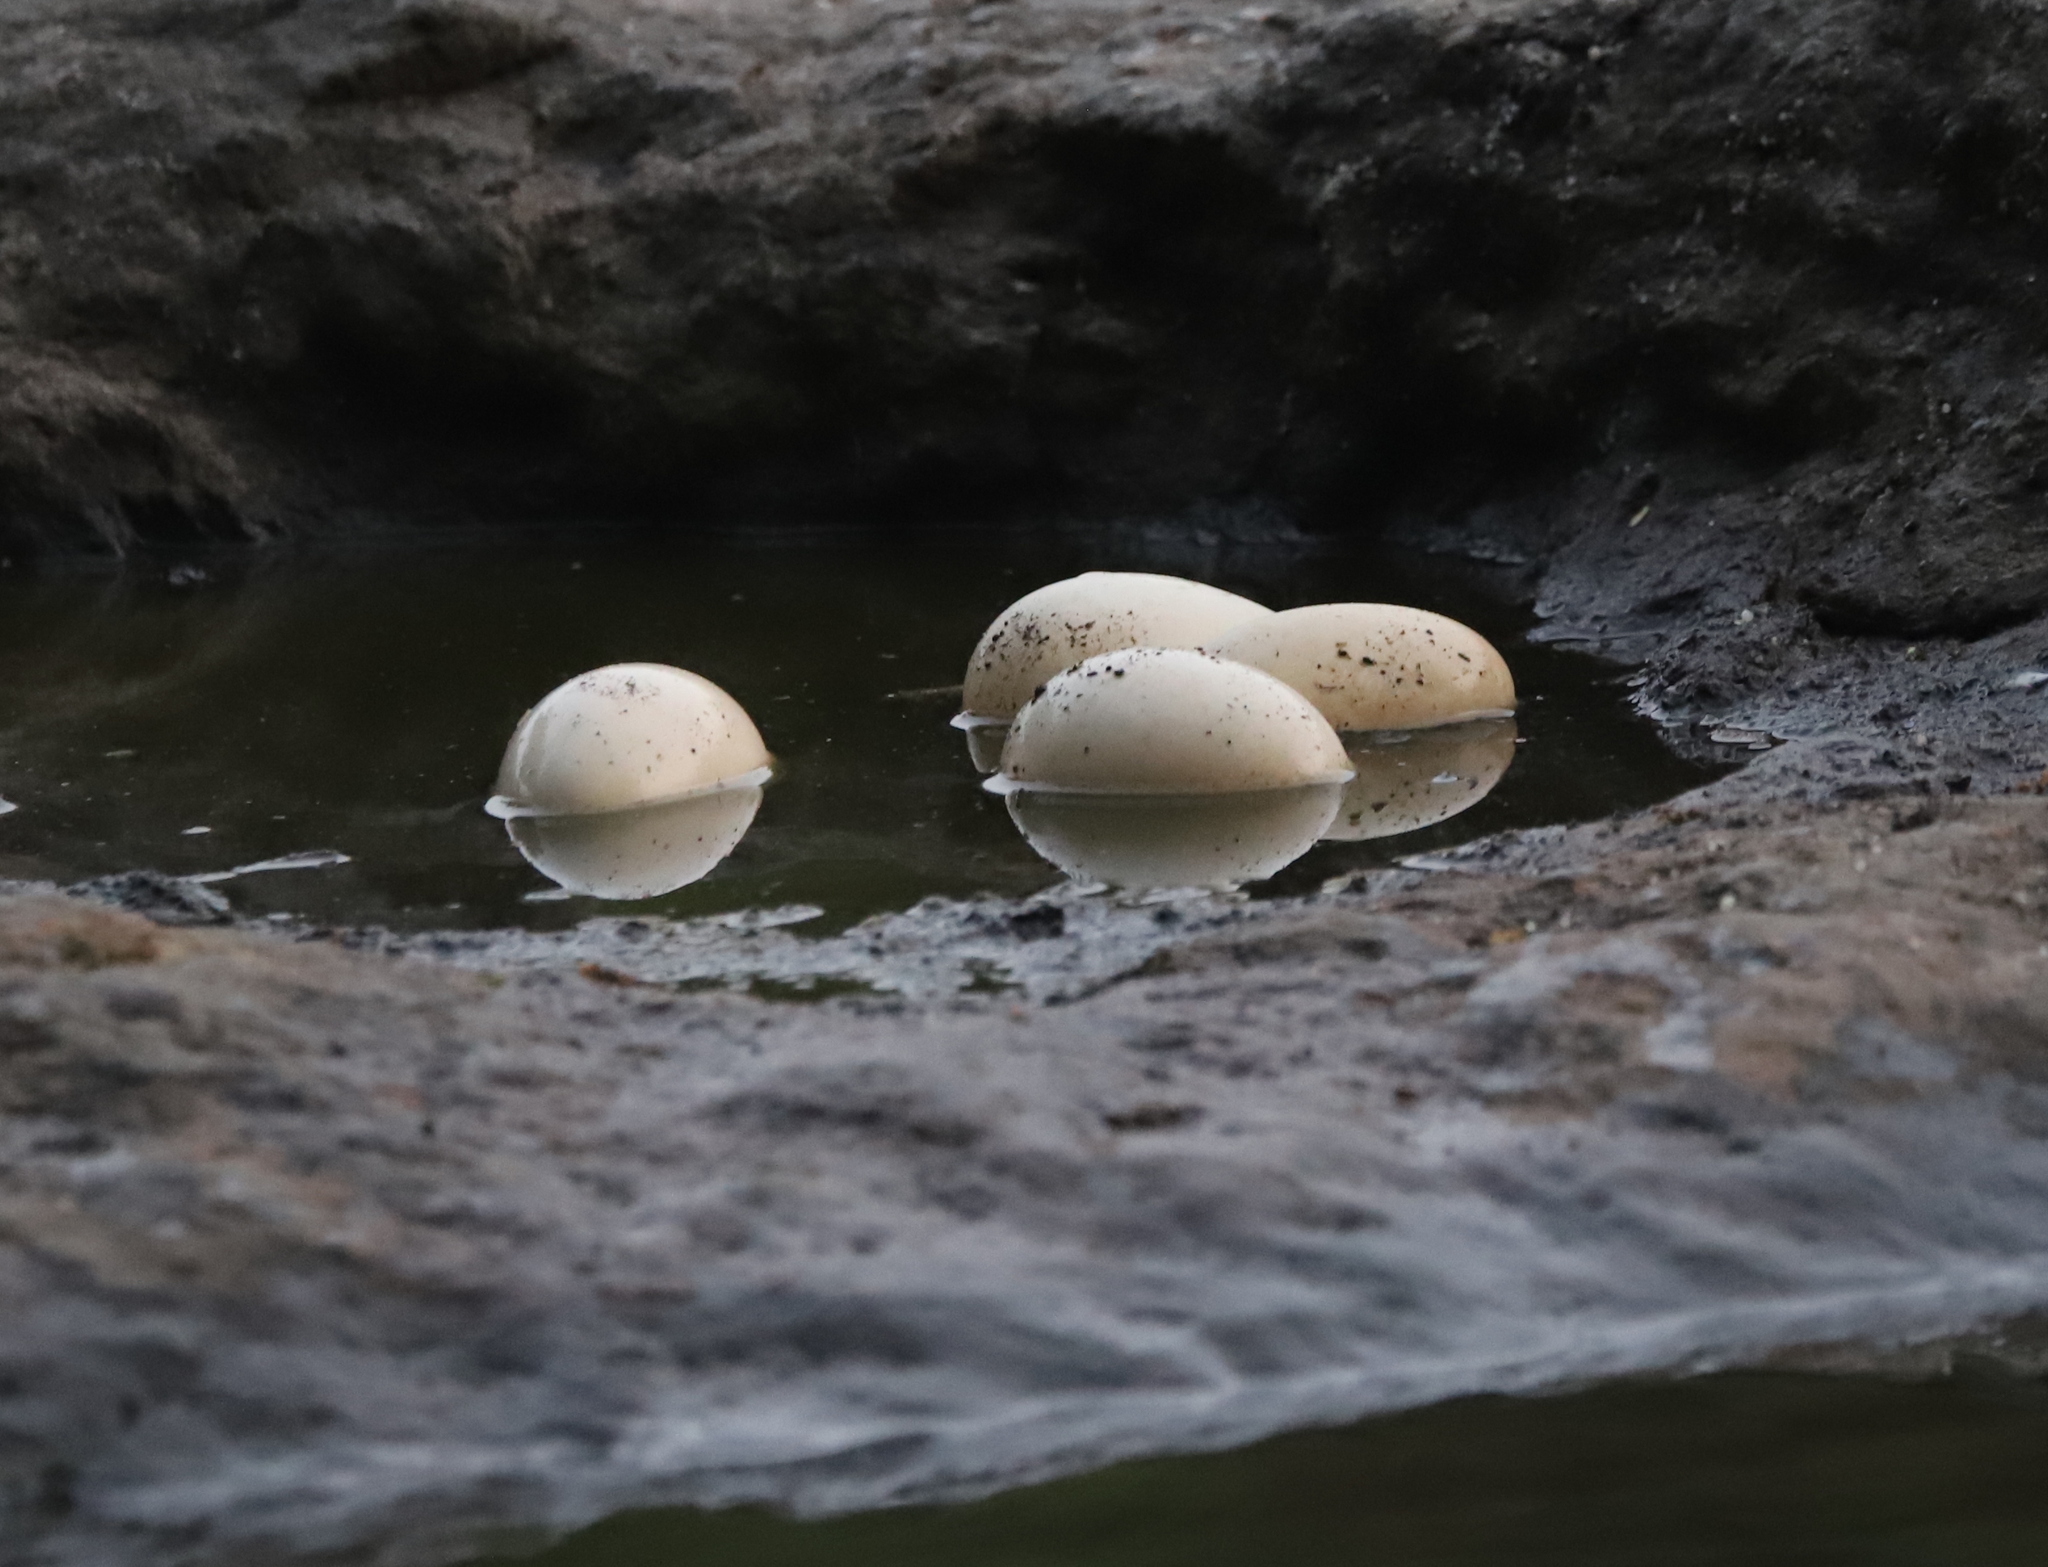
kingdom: Animalia
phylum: Chordata
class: Aves
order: Anseriformes
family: Anatidae
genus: Branta
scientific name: Branta canadensis
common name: Canada goose
